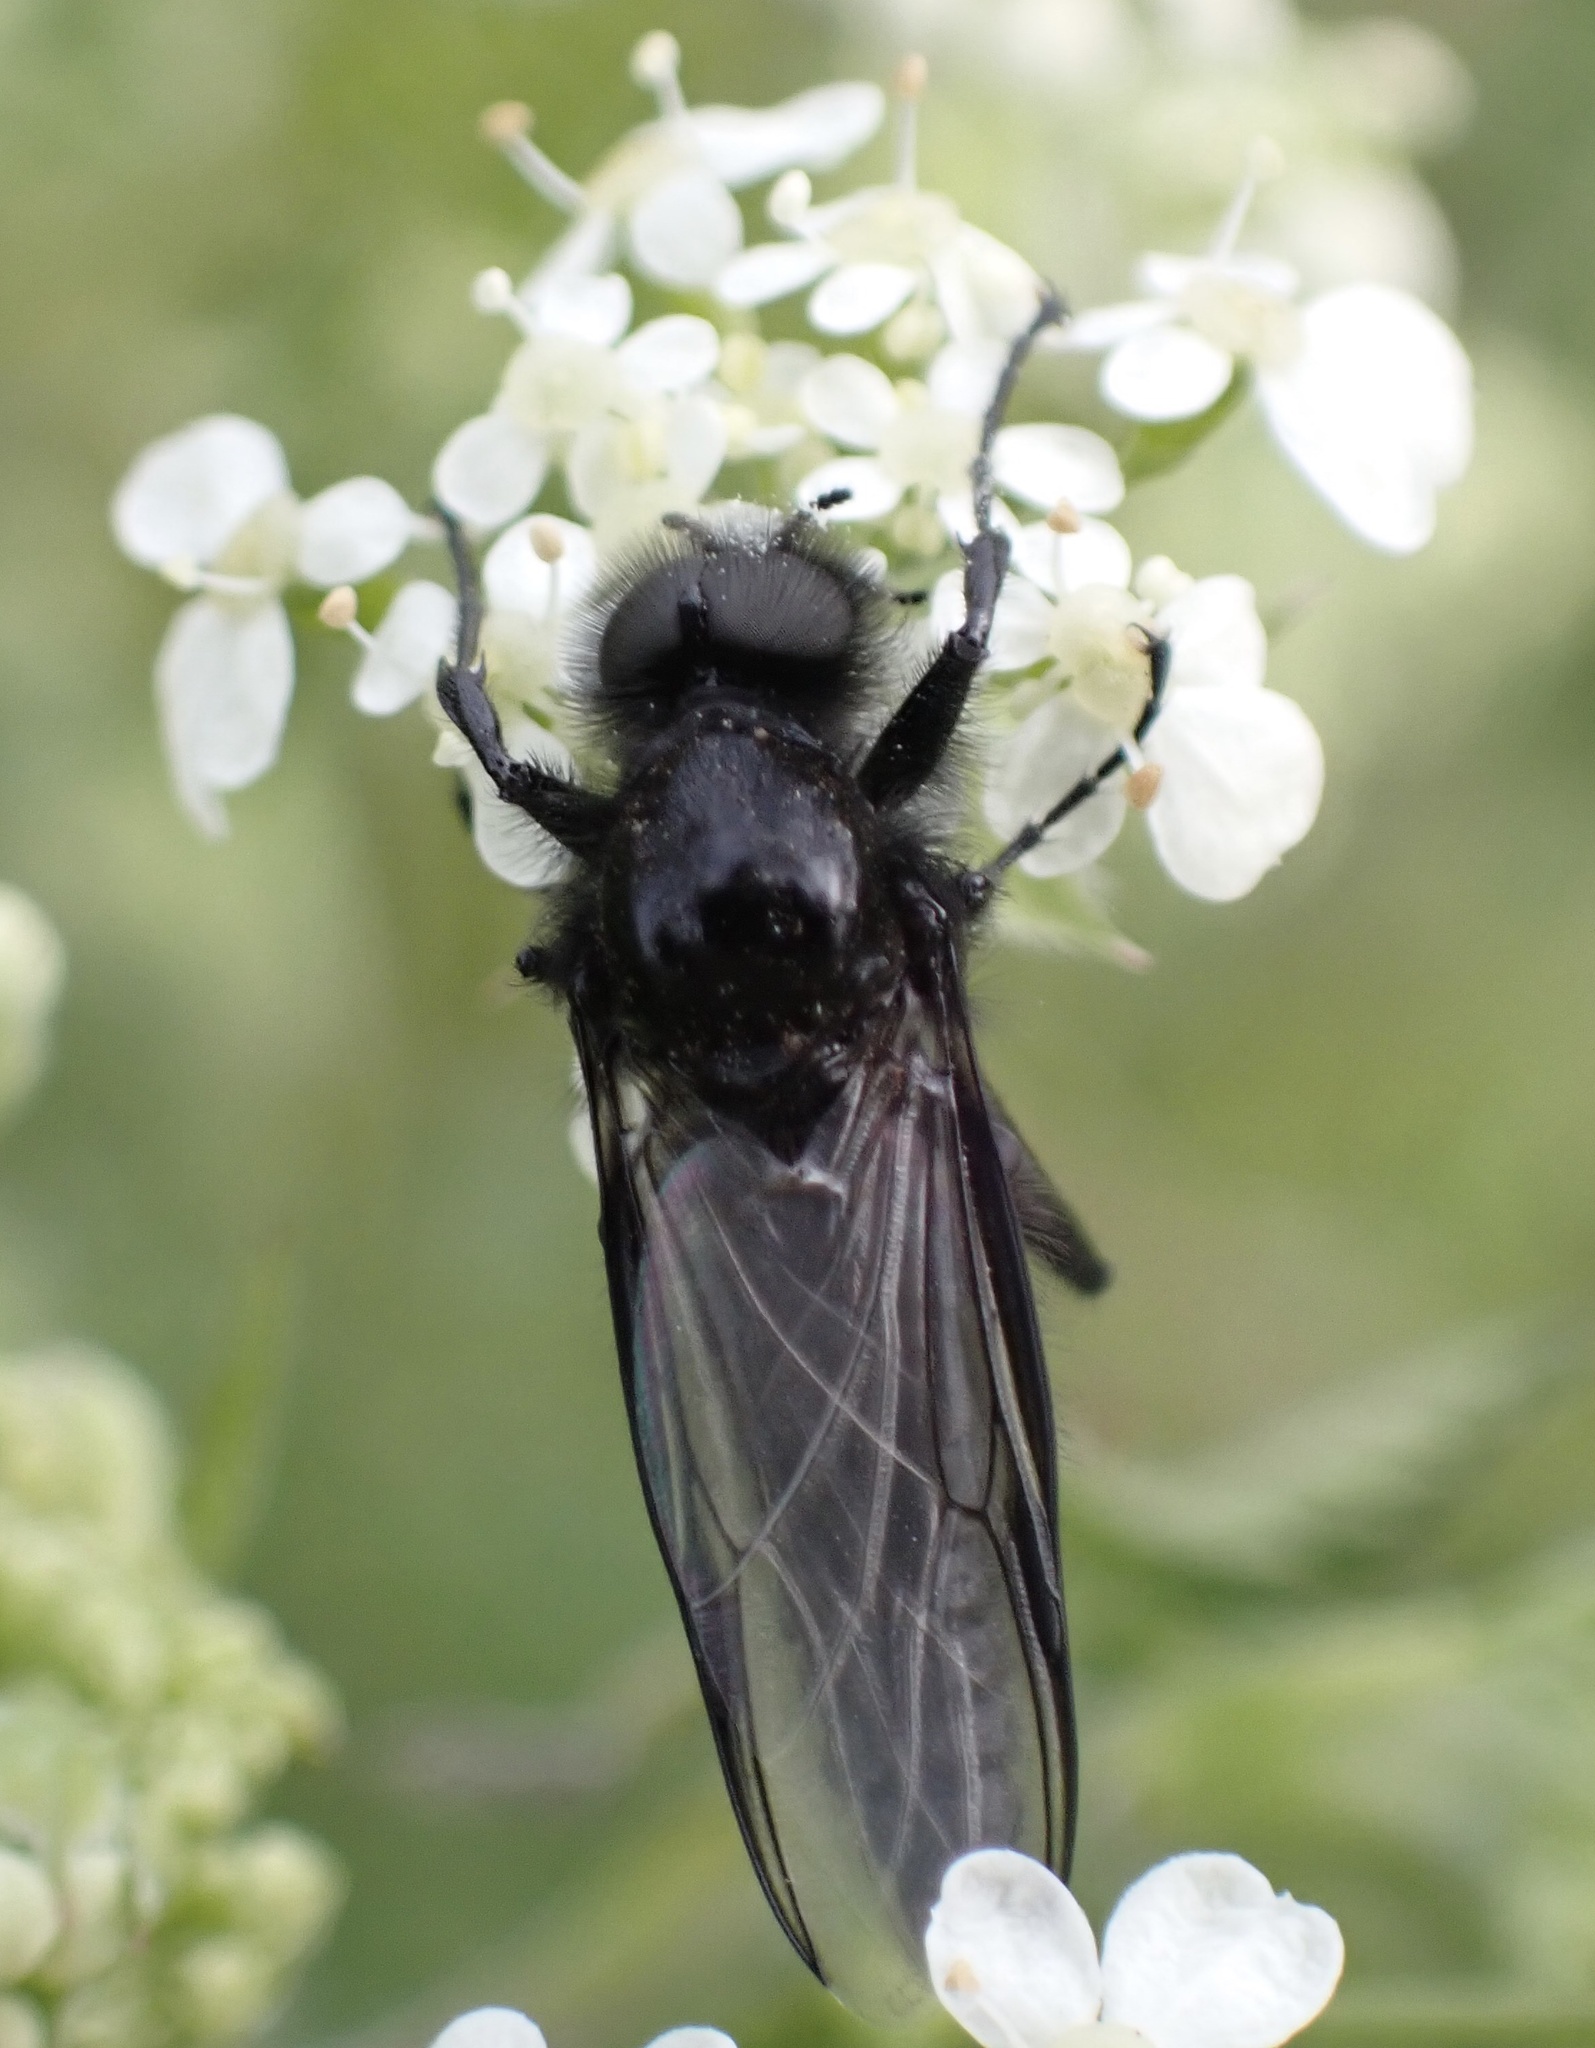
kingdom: Animalia
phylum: Arthropoda
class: Insecta
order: Diptera
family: Bibionidae
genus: Bibio
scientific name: Bibio marci
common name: St marks fly
